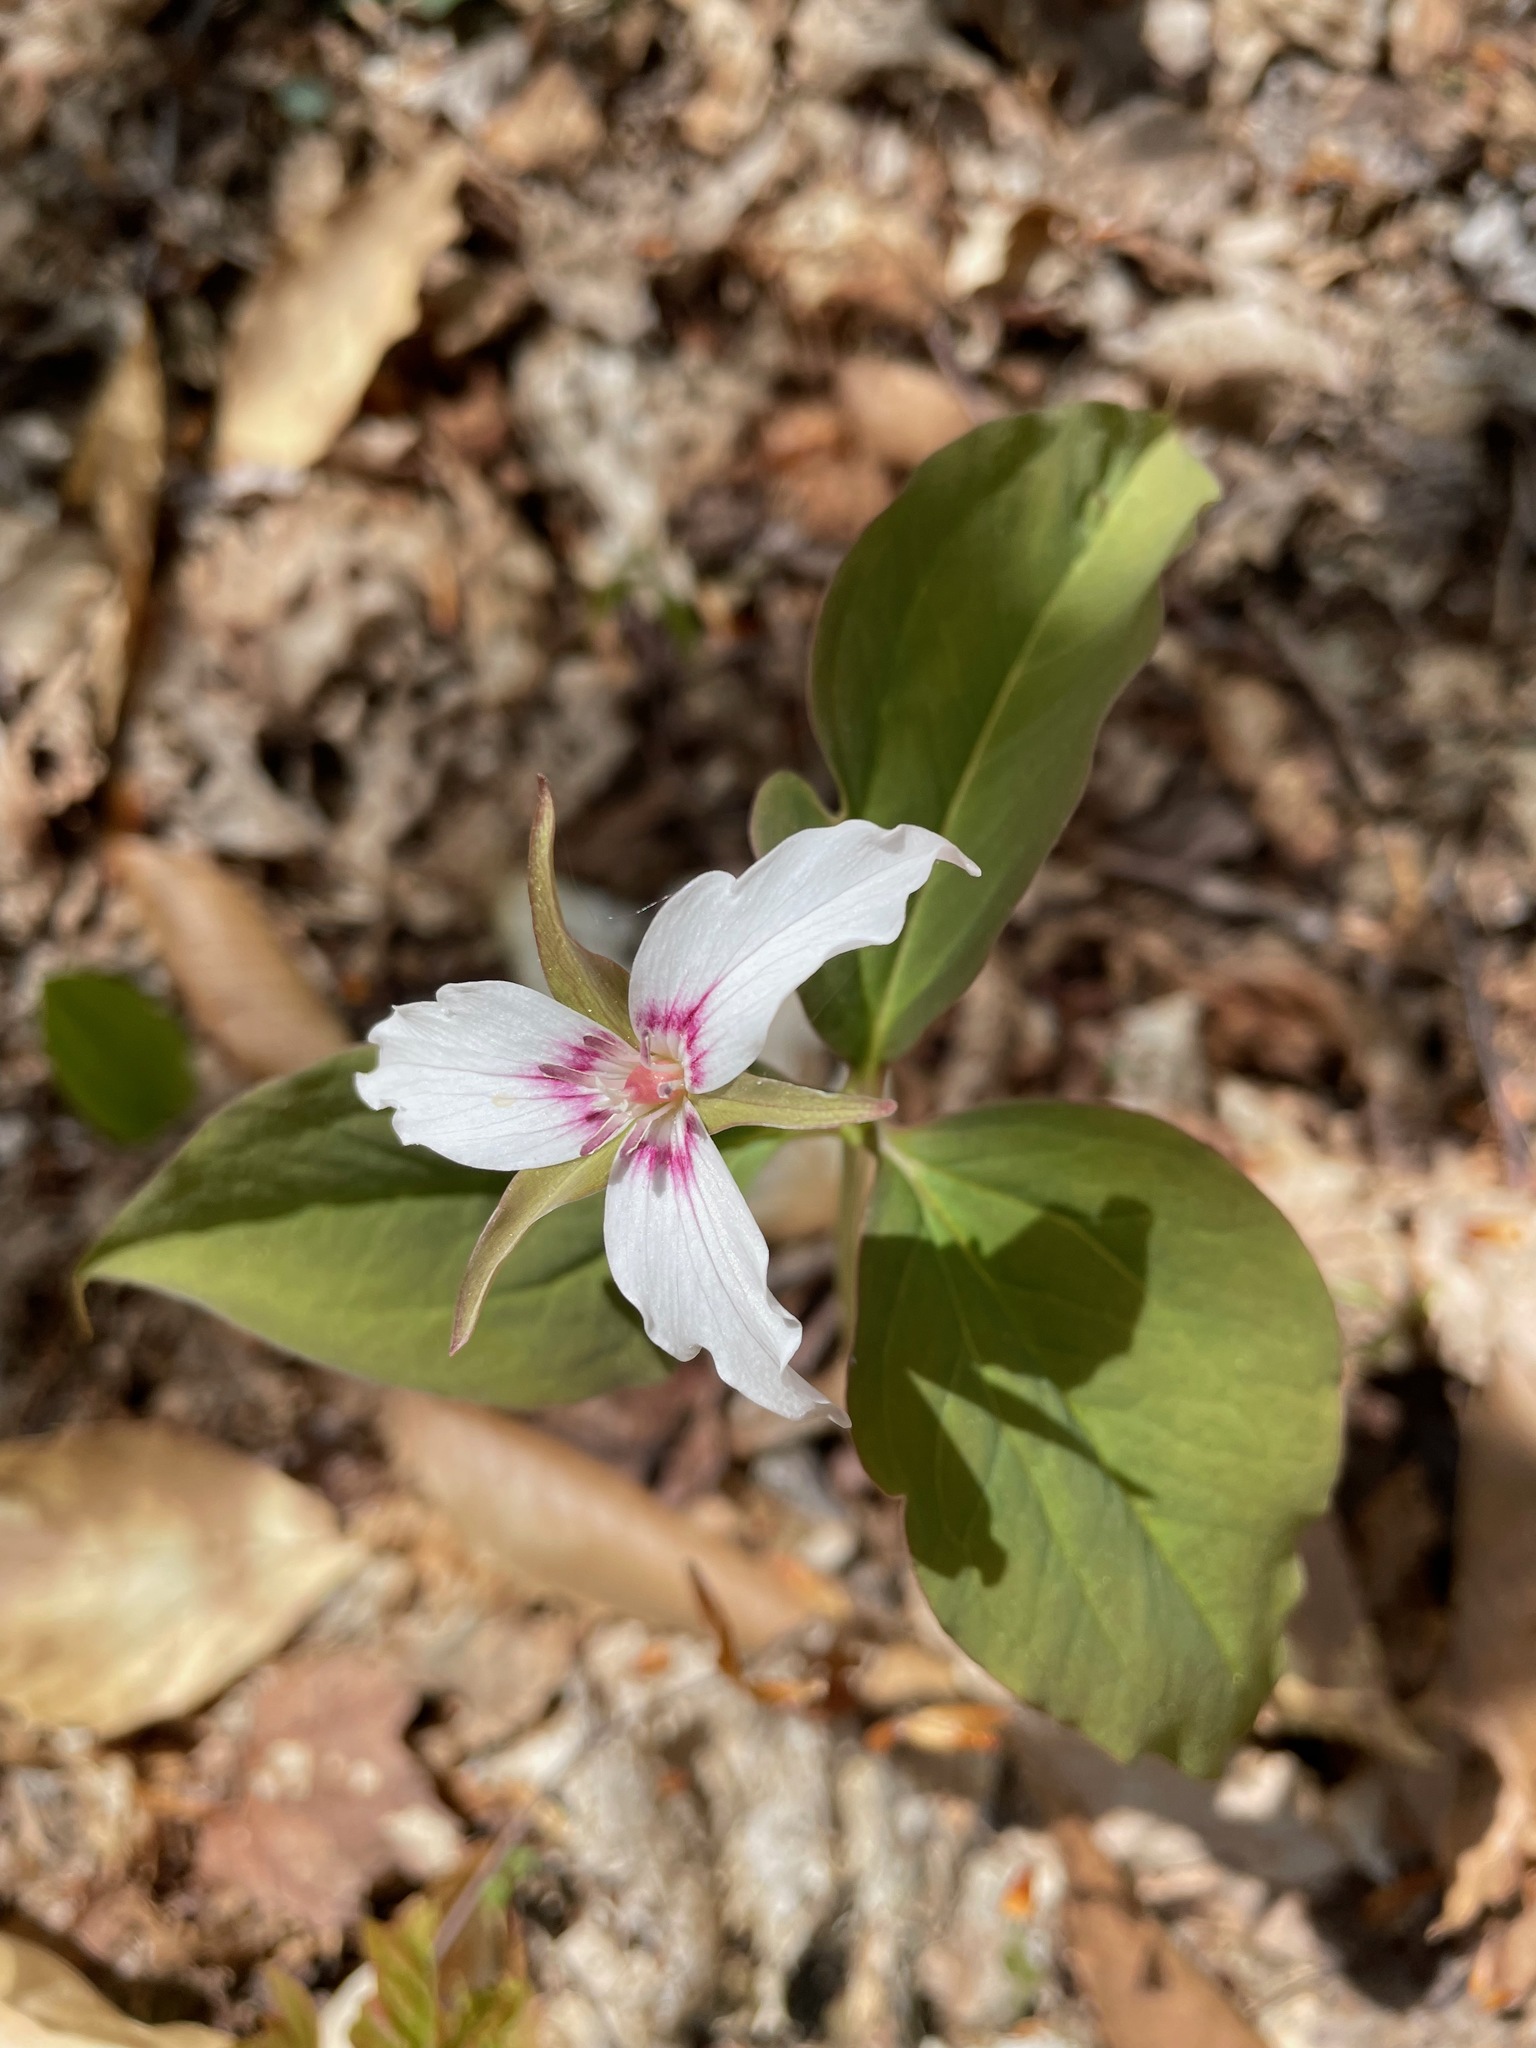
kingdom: Plantae
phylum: Tracheophyta
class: Liliopsida
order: Liliales
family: Melanthiaceae
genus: Trillium
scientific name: Trillium undulatum
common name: Paint trillium
